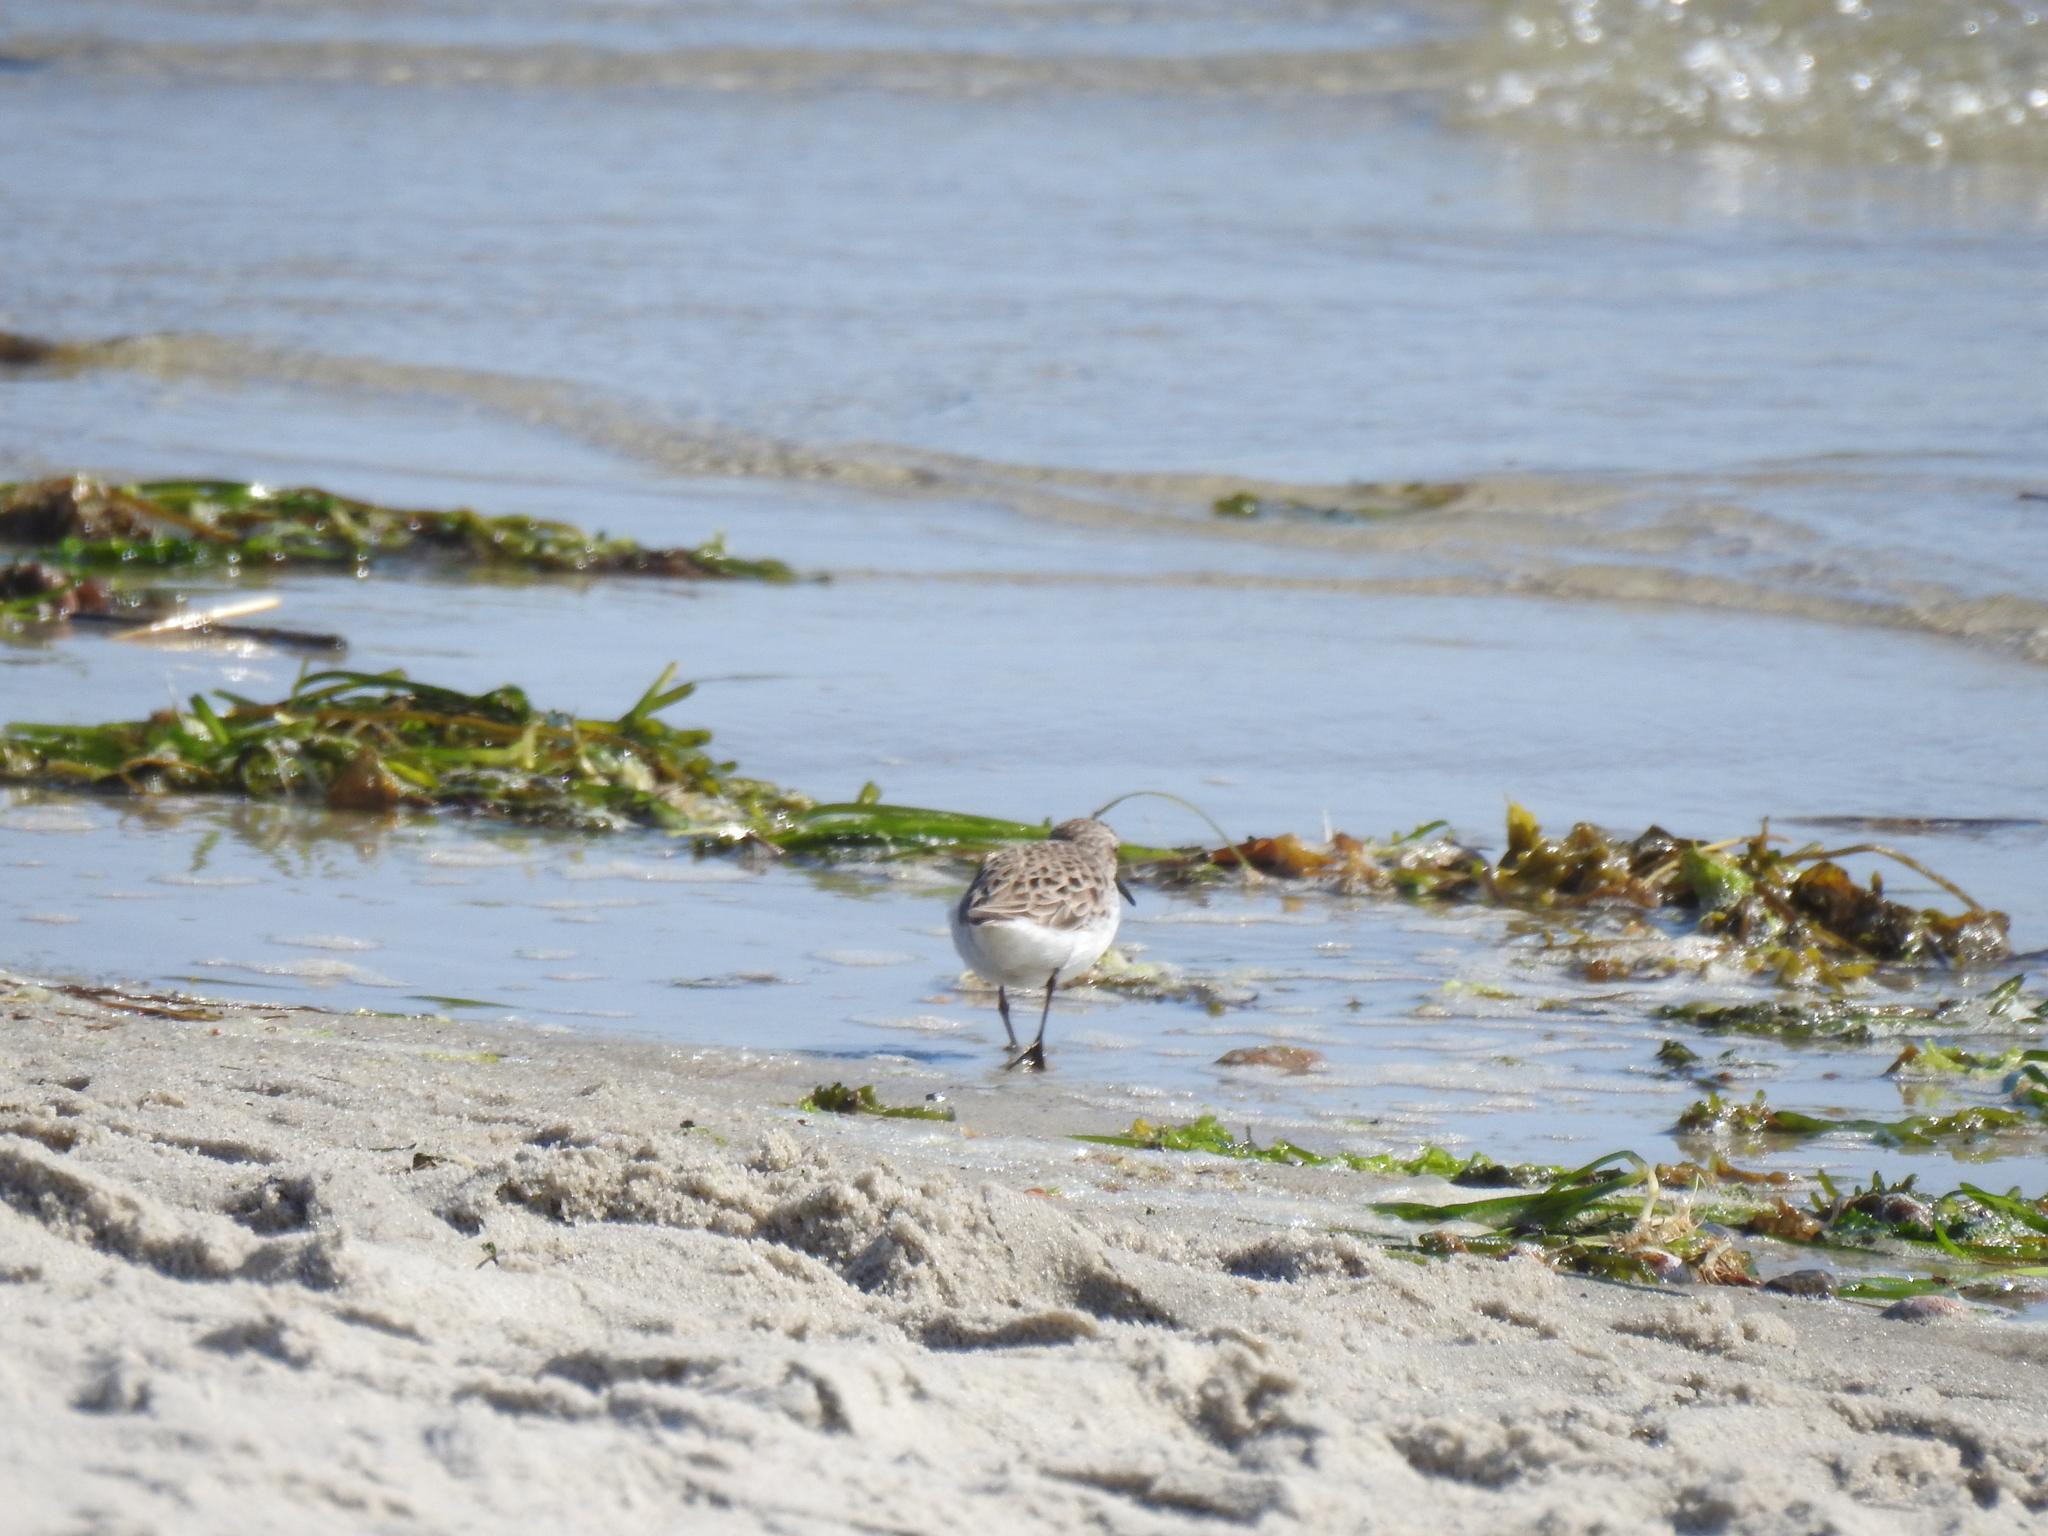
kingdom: Animalia
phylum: Chordata
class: Aves
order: Charadriiformes
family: Scolopacidae
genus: Calidris
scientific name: Calidris alba
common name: Sanderling
